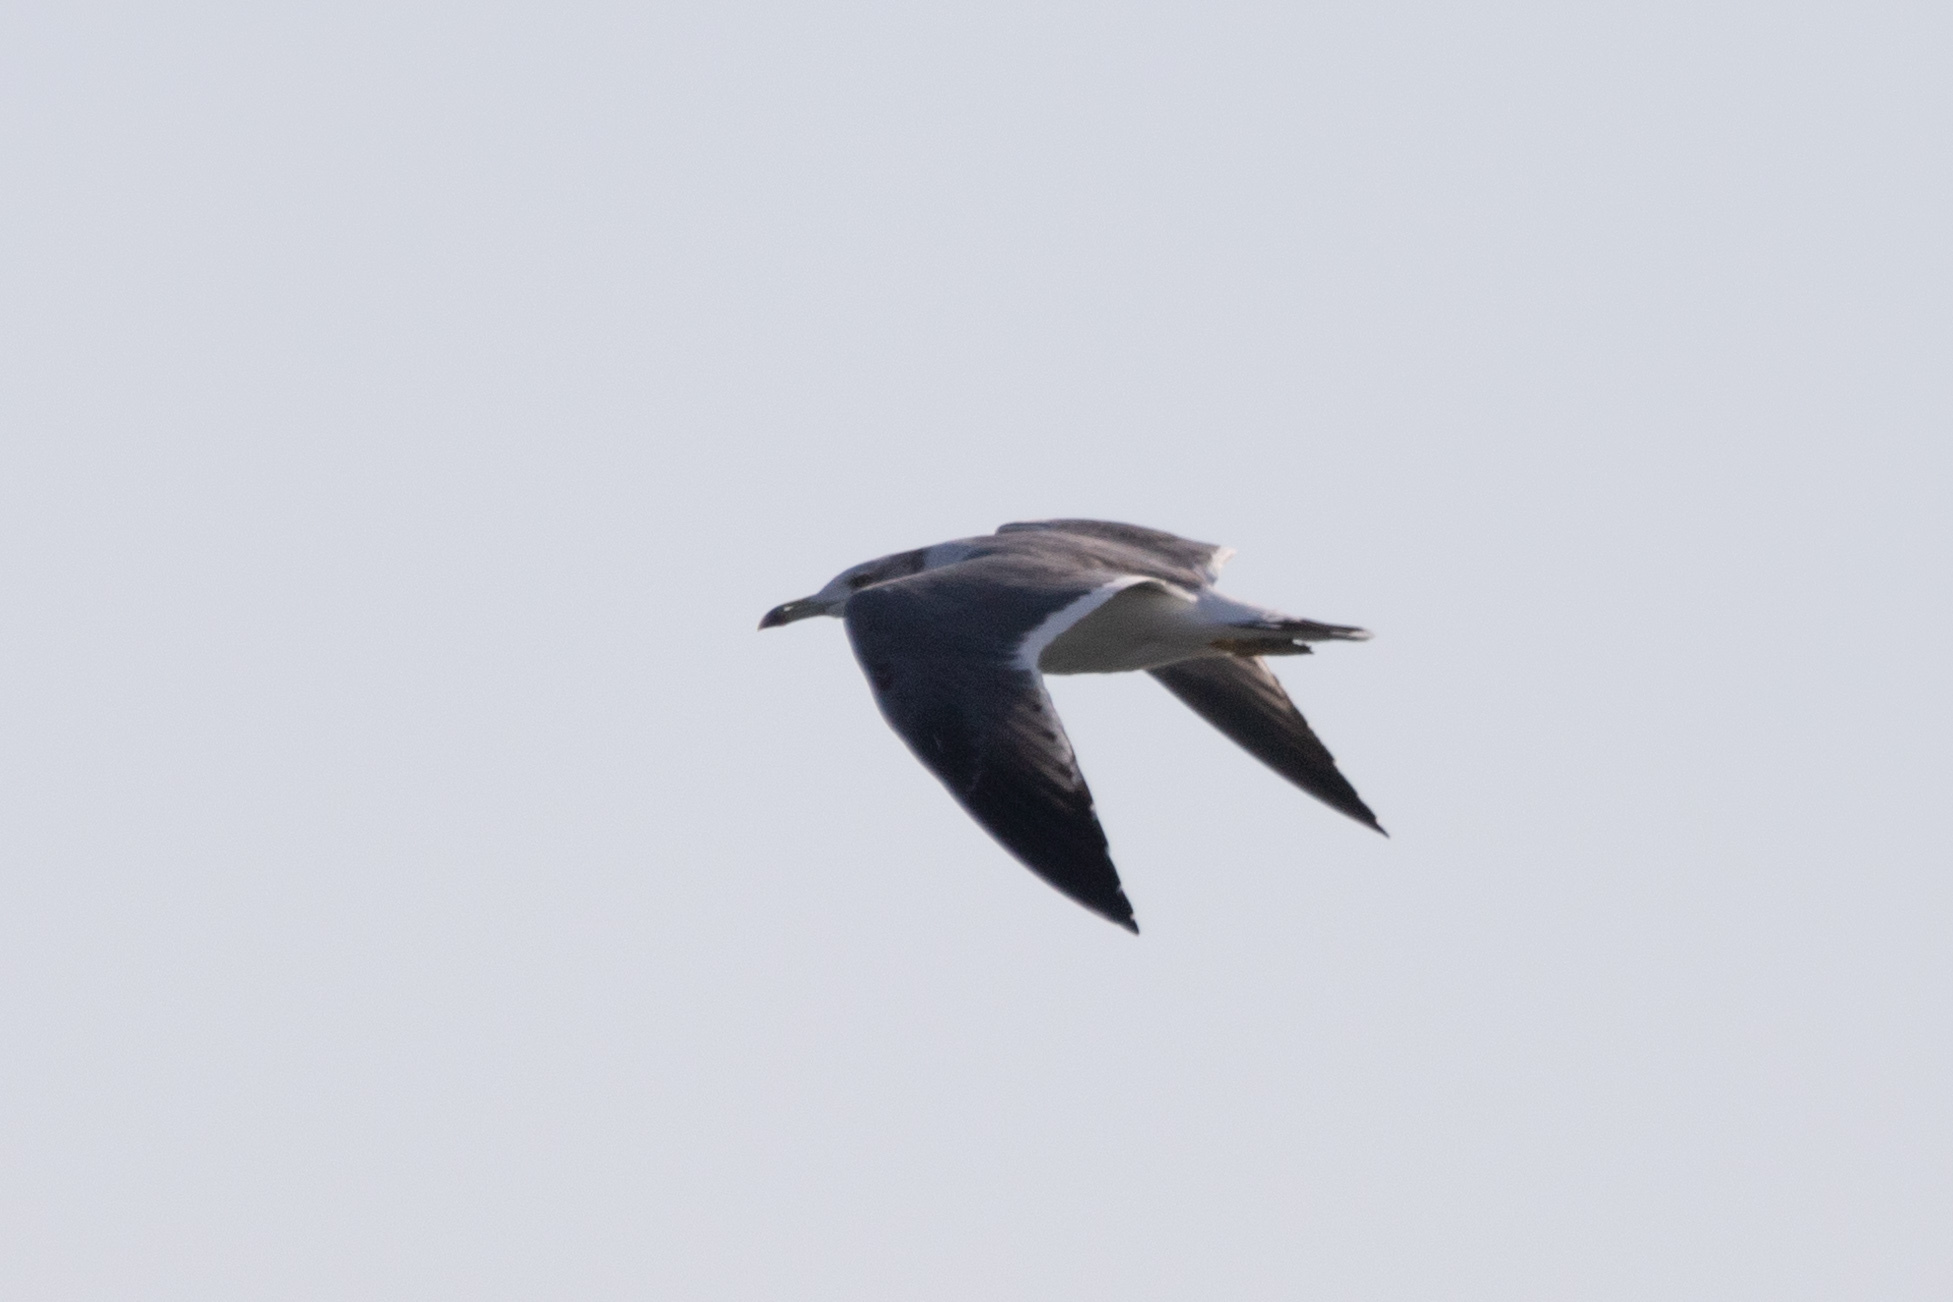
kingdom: Animalia
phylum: Chordata
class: Aves
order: Charadriiformes
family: Laridae
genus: Larus
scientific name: Larus crassirostris
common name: Black-tailed gull
